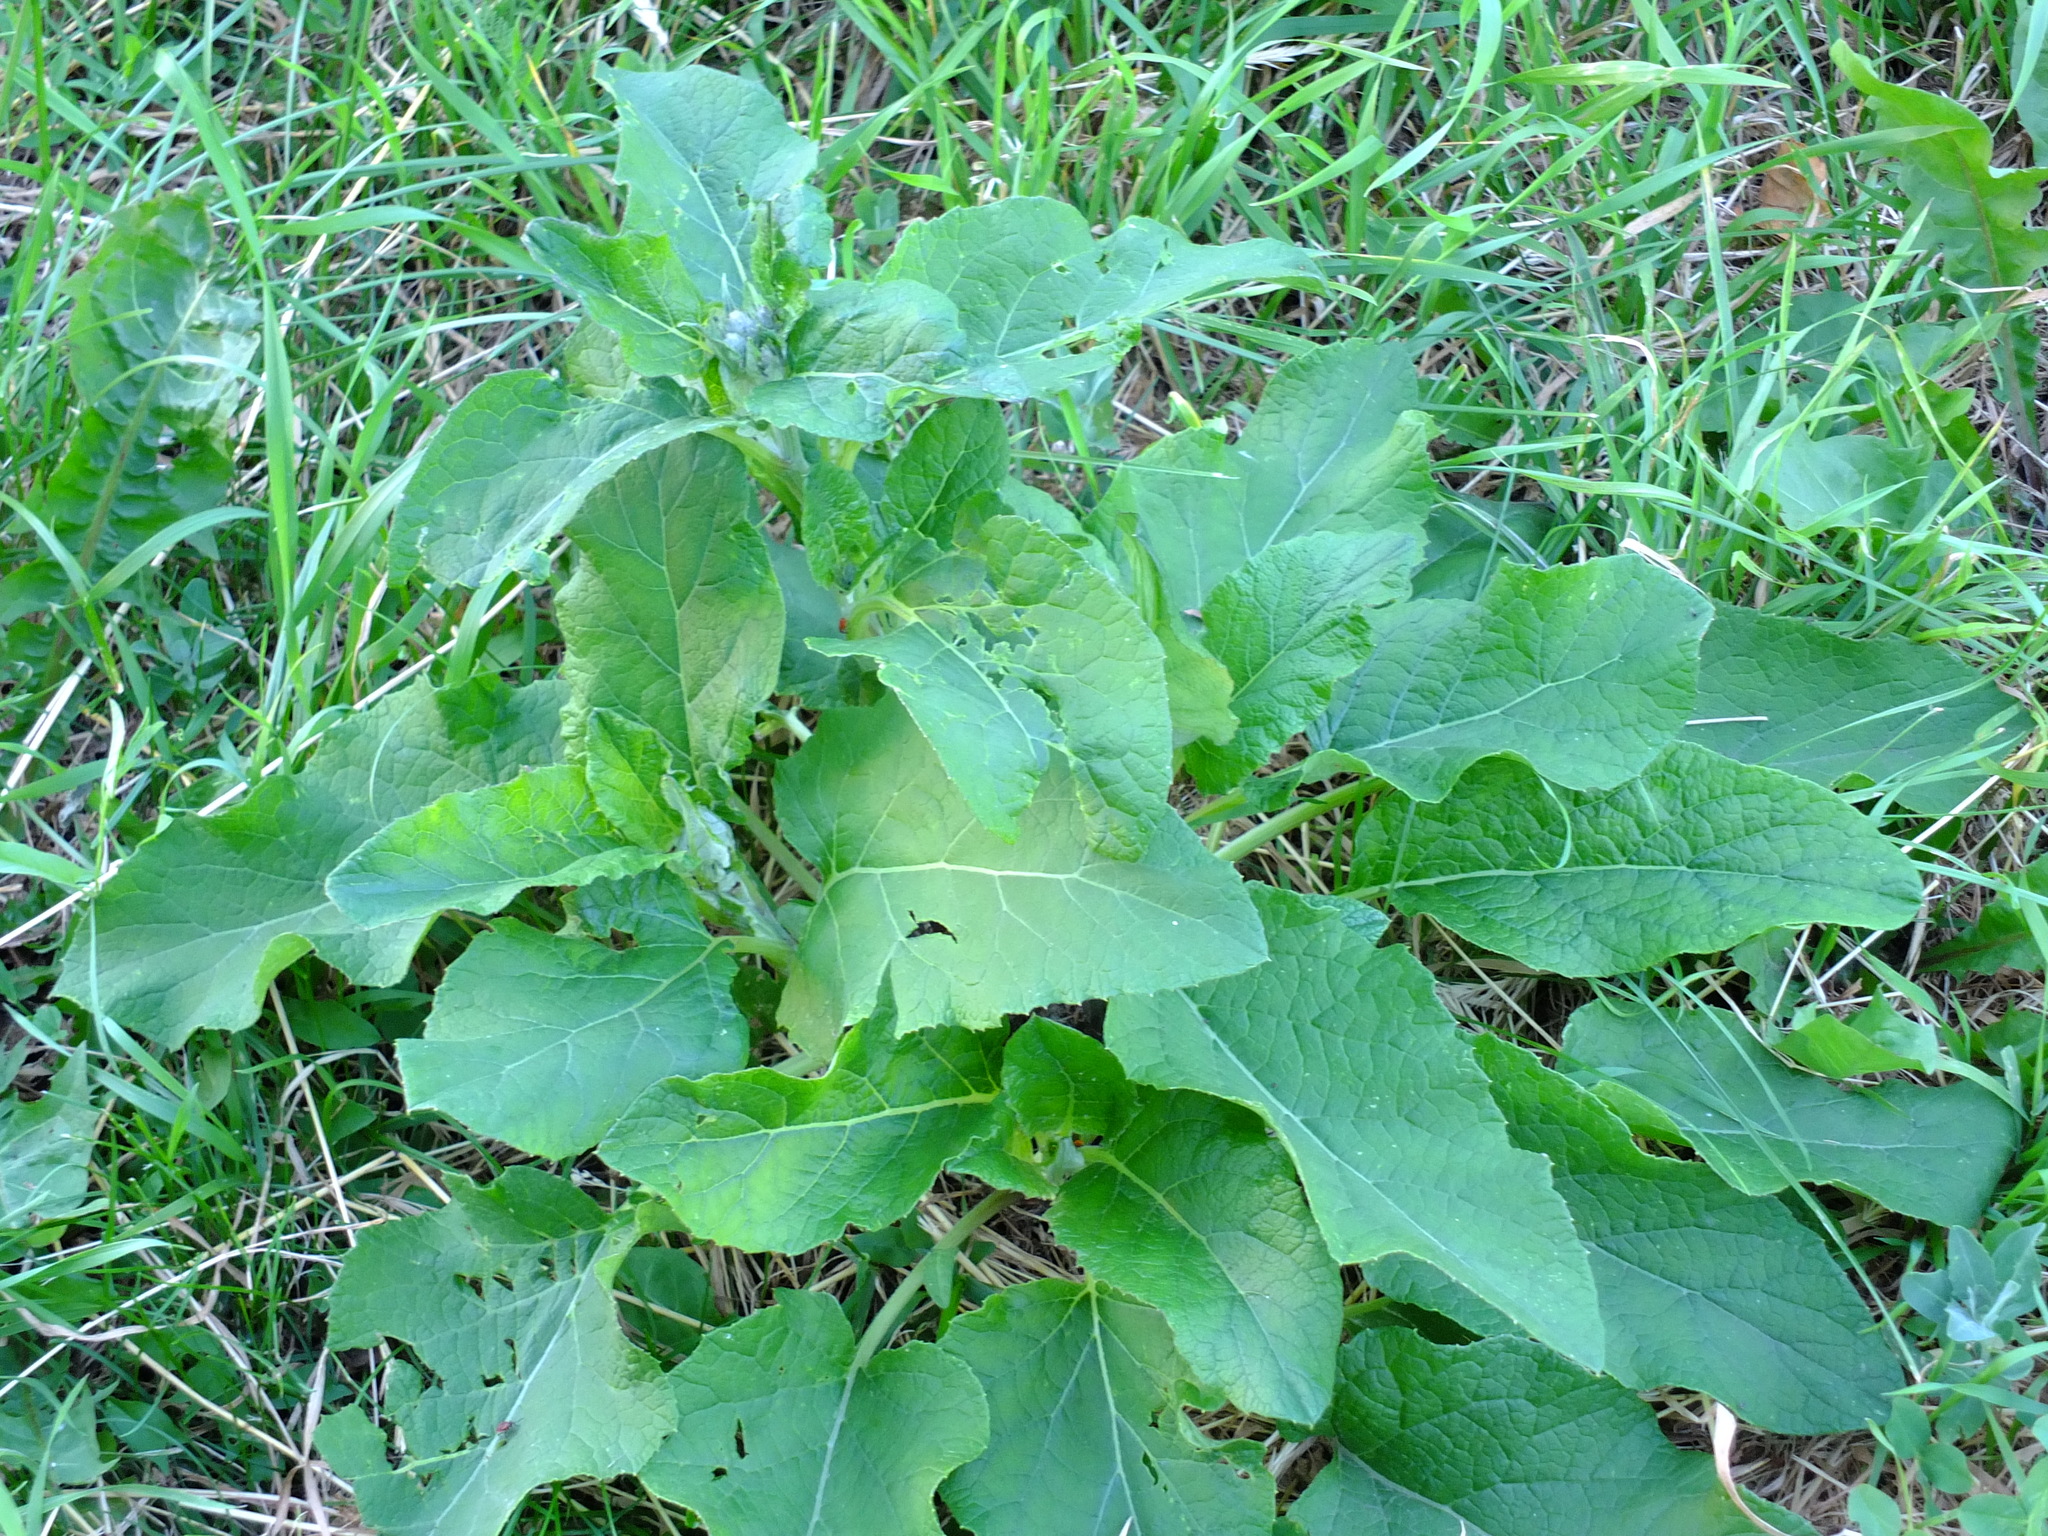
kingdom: Plantae
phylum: Tracheophyta
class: Magnoliopsida
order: Asterales
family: Asteraceae
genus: Arctium
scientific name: Arctium tomentosum
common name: Woolly burdock
